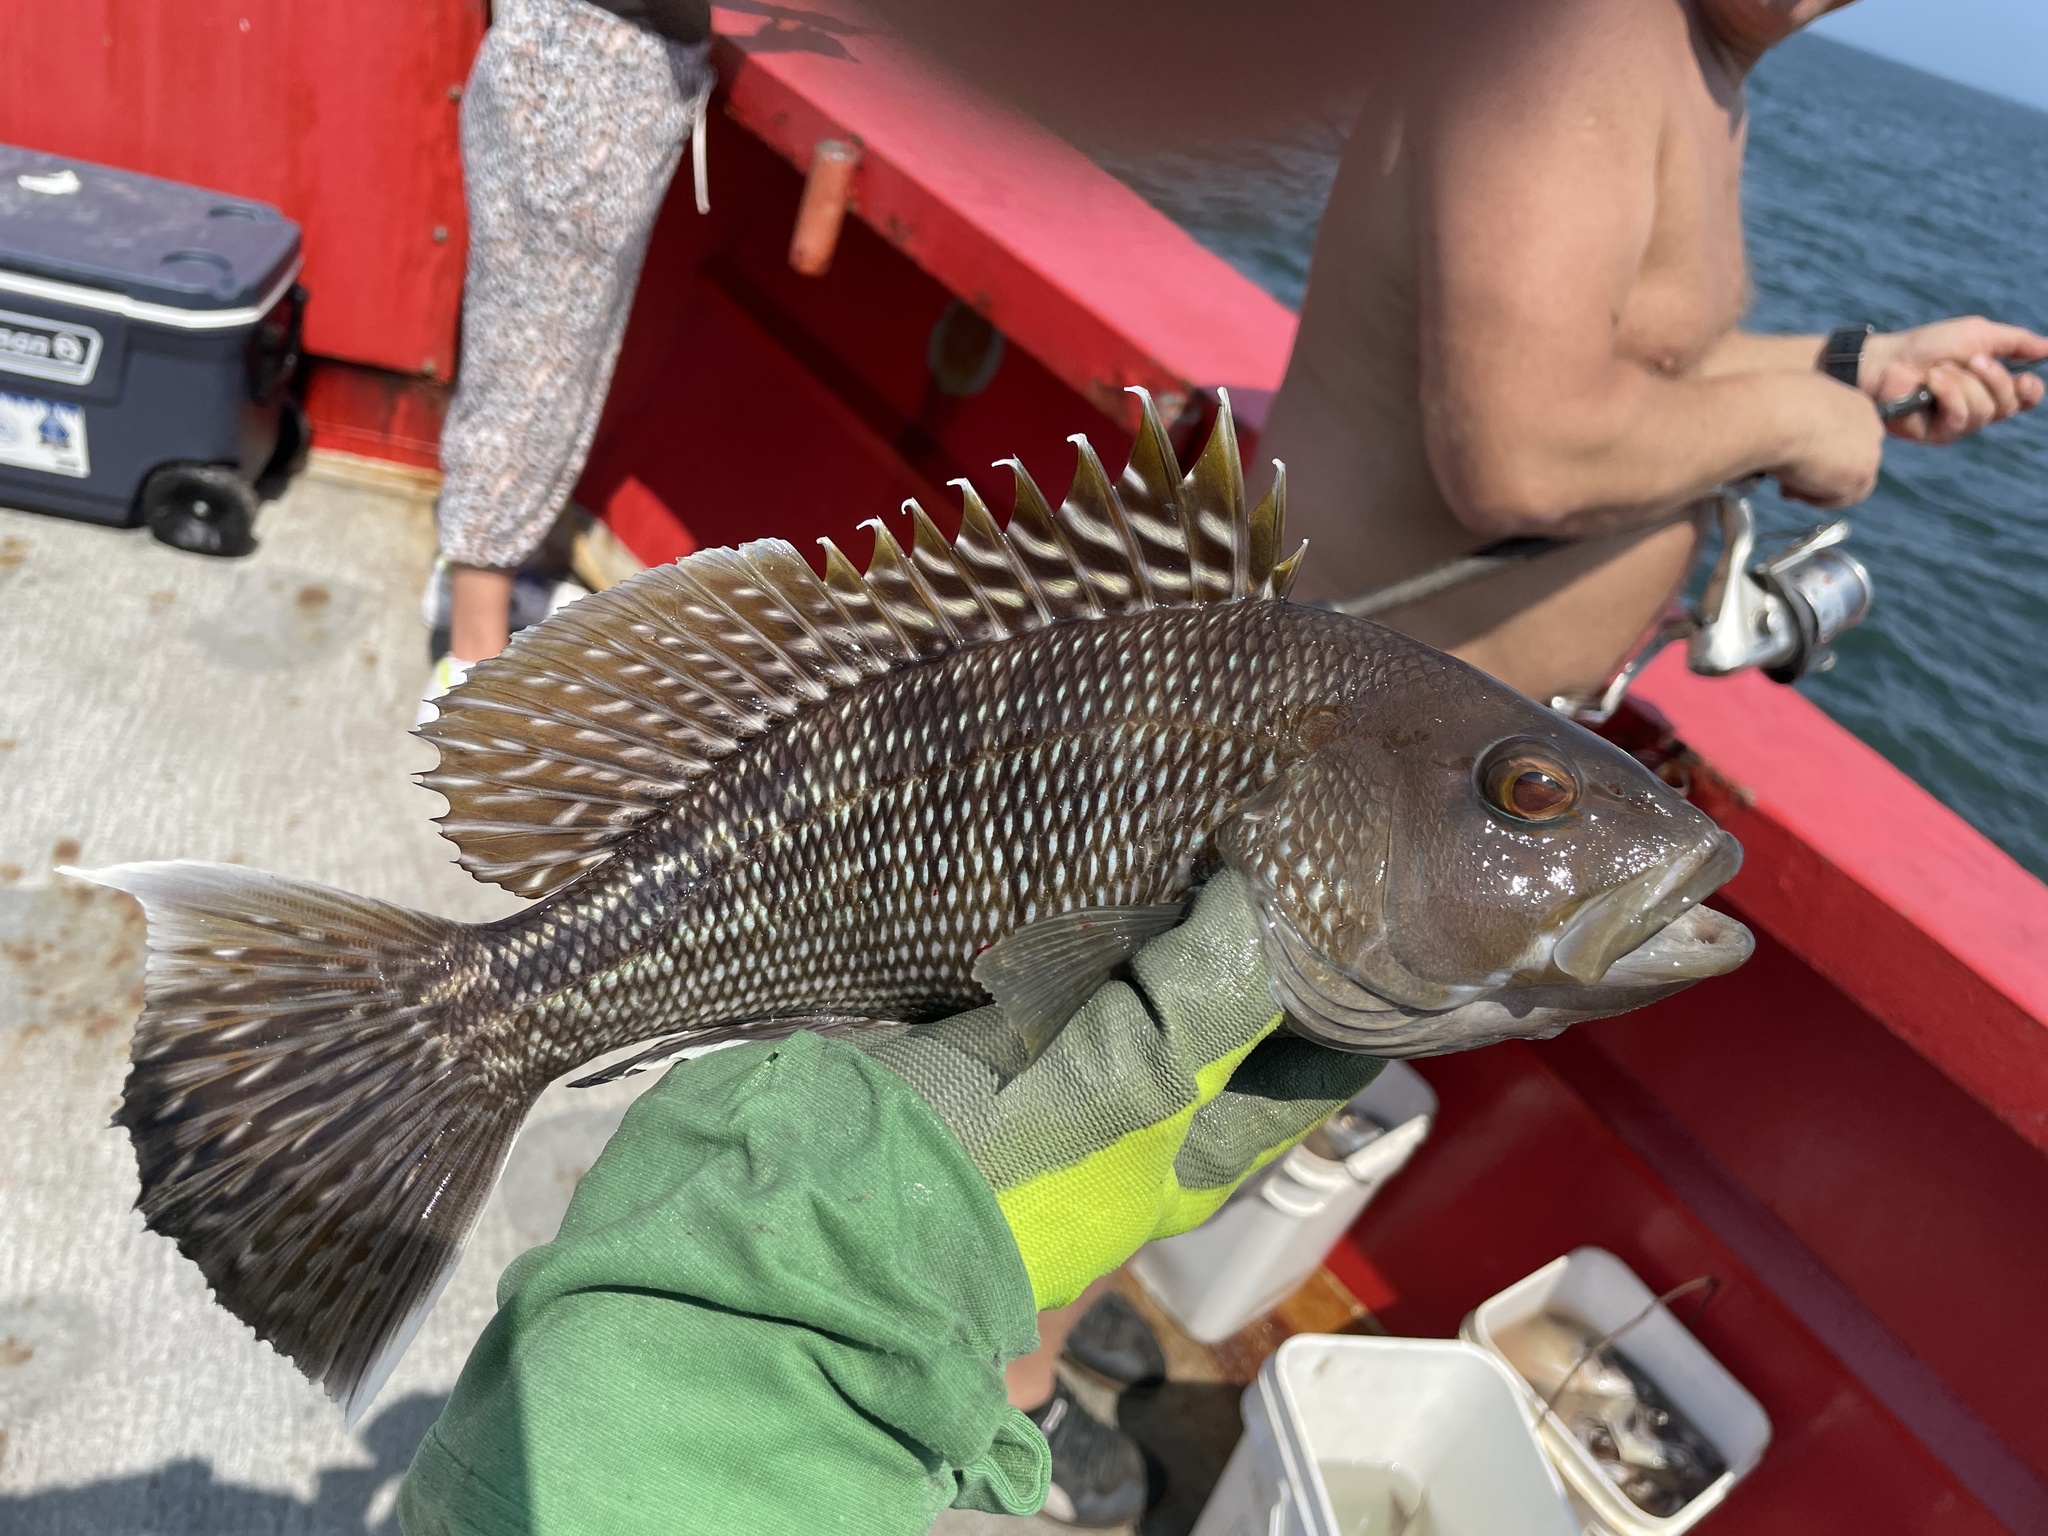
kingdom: Animalia
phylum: Chordata
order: Perciformes
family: Serranidae
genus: Centropristis
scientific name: Centropristis striata
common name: Black sea bass
